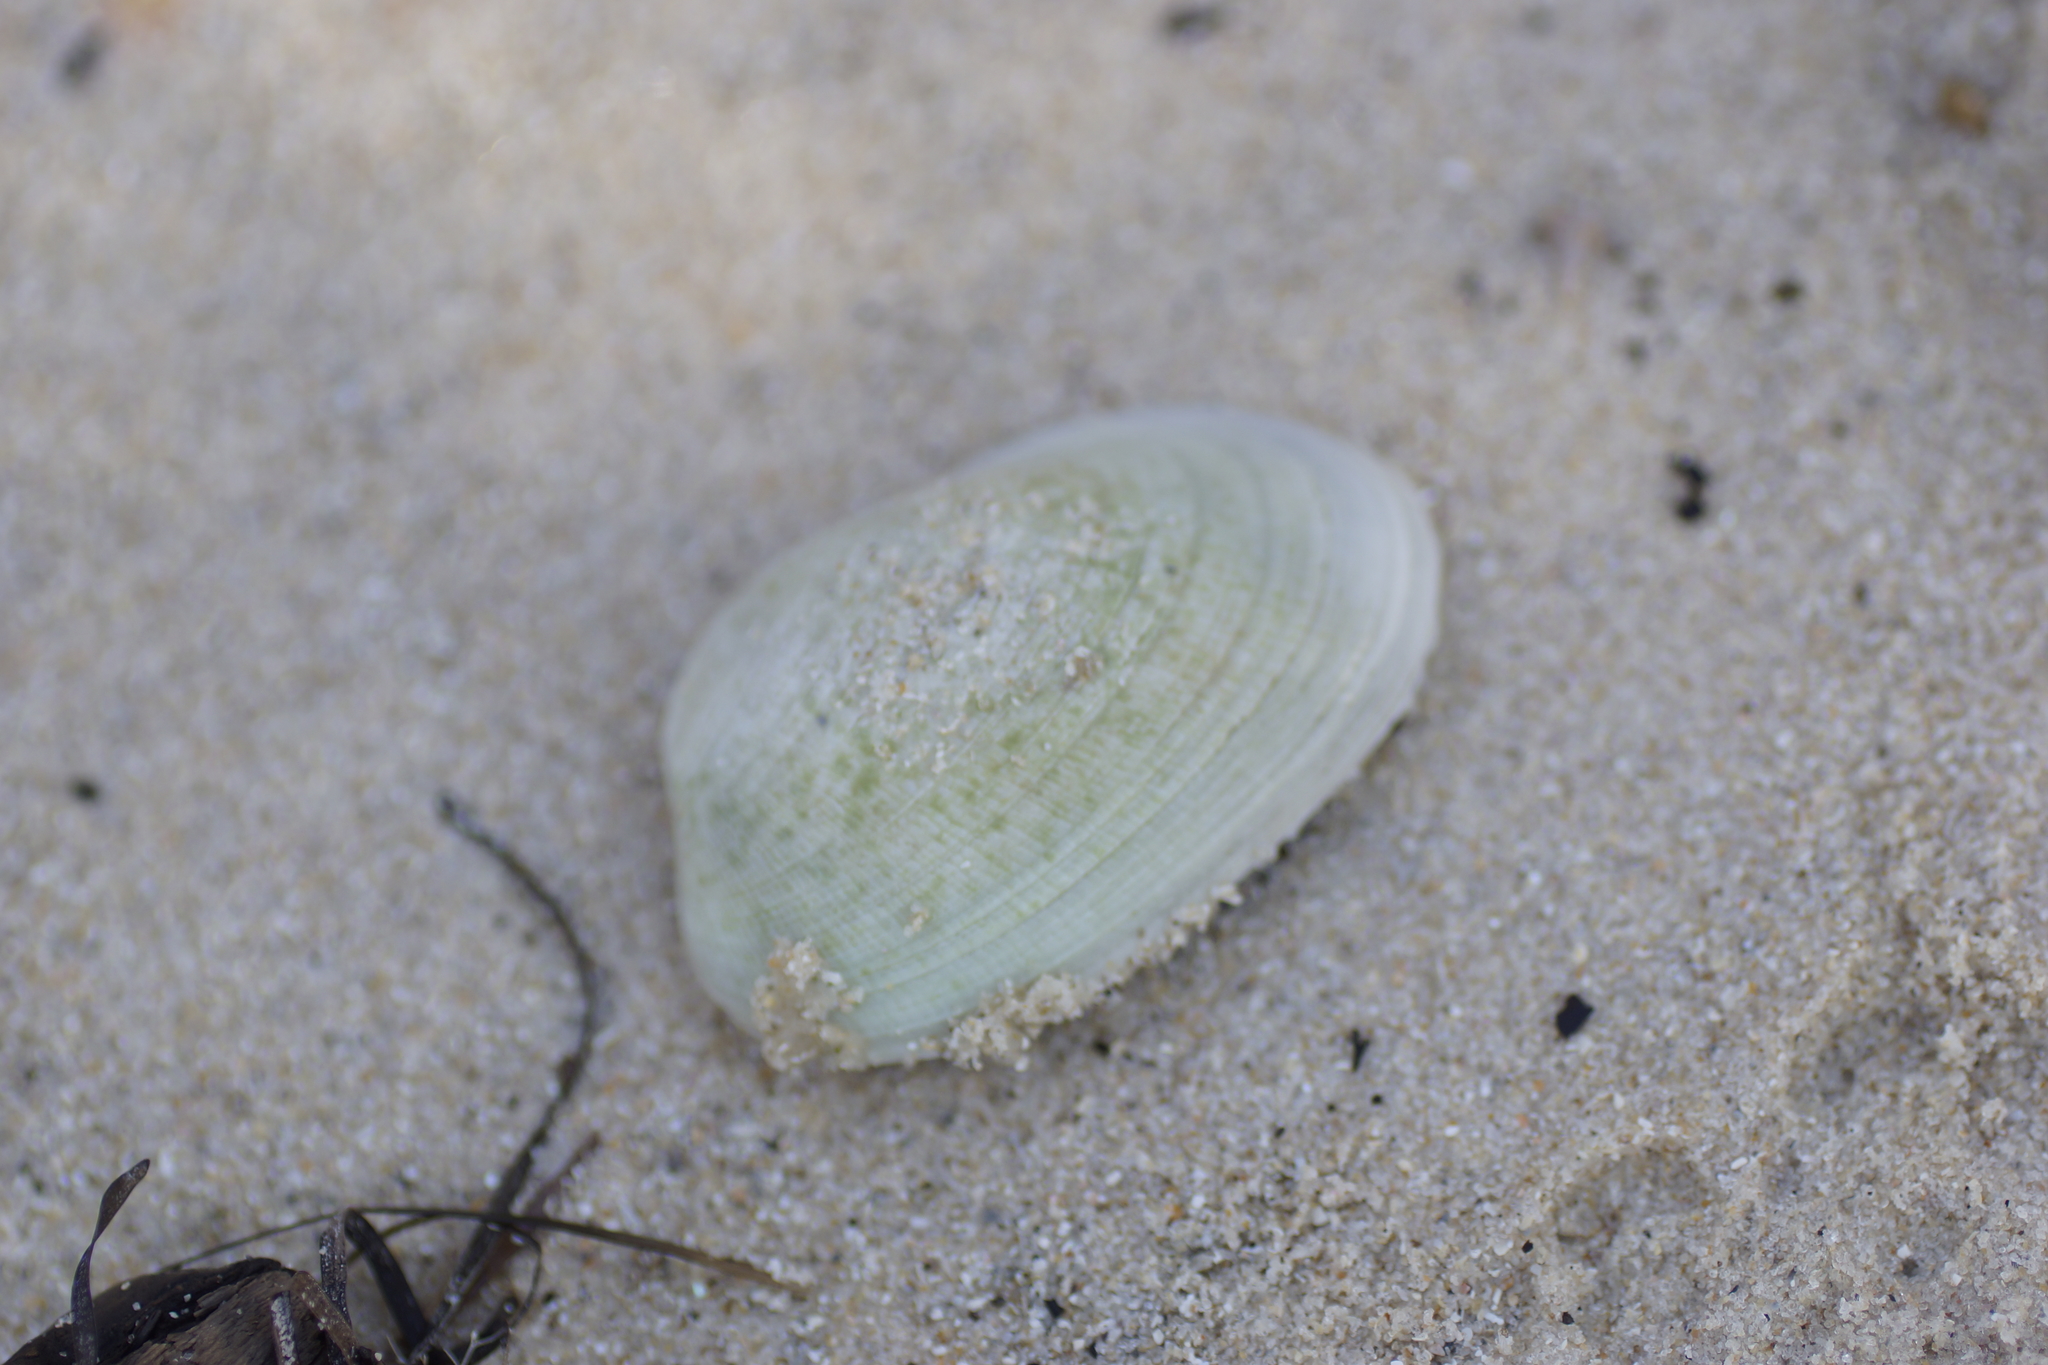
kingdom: Animalia
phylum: Mollusca
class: Bivalvia
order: Venerida
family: Veneridae
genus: Venerupis
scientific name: Venerupis galactites
